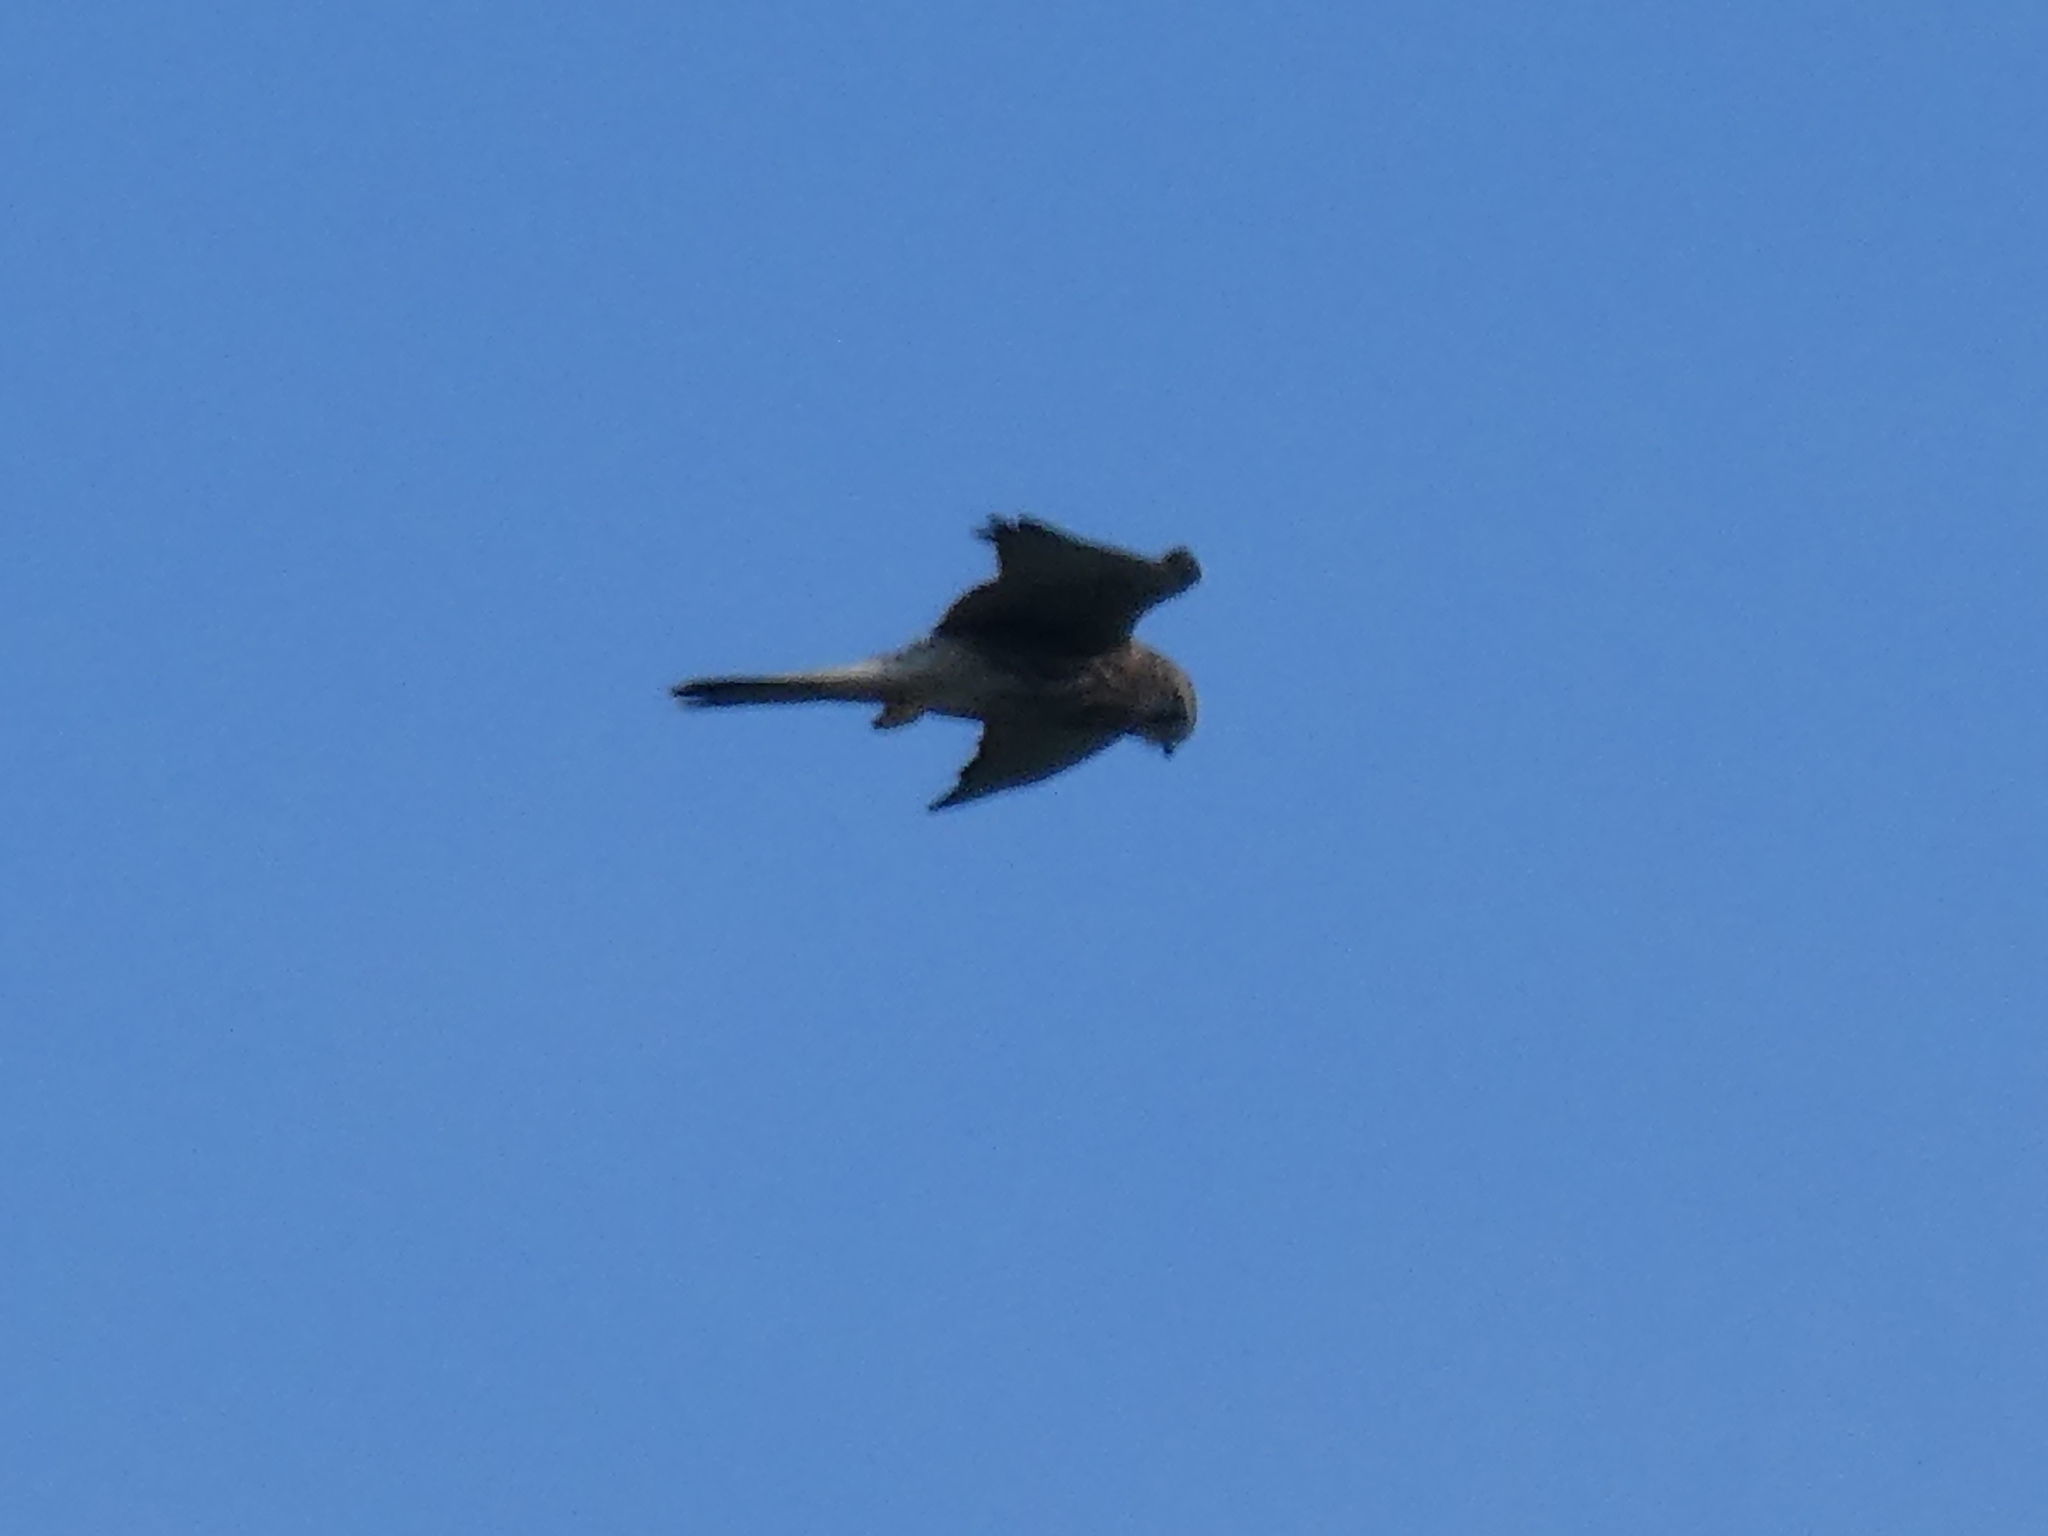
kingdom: Animalia
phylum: Chordata
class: Aves
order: Falconiformes
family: Falconidae
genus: Falco
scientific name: Falco tinnunculus
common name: Common kestrel
